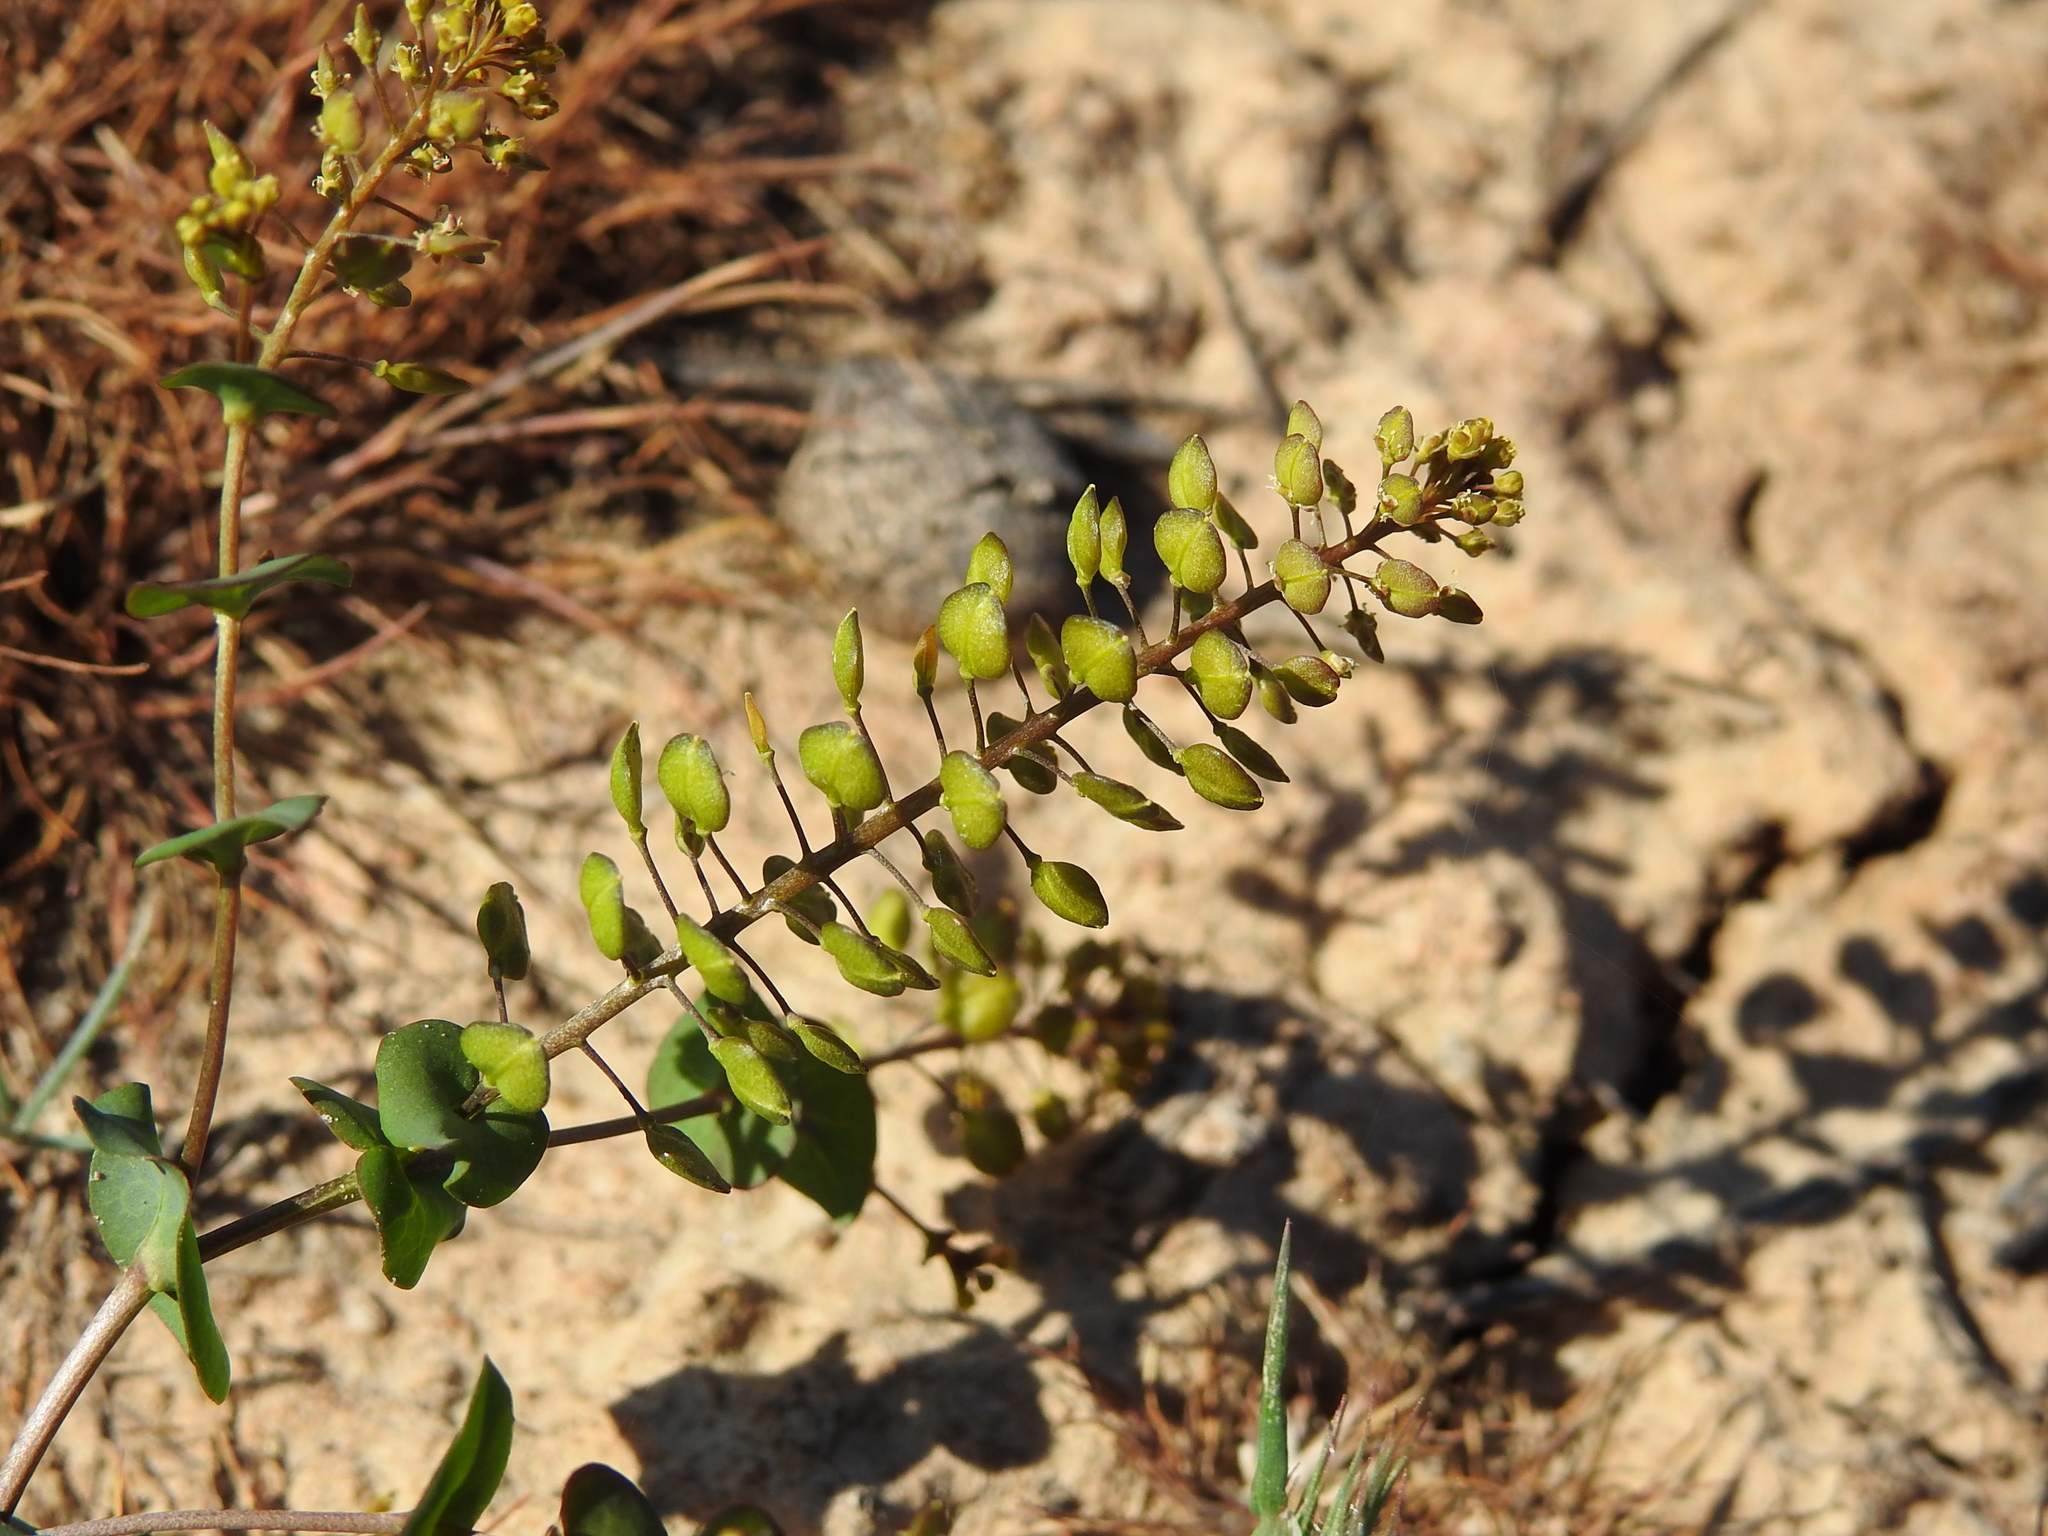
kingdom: Plantae
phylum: Tracheophyta
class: Magnoliopsida
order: Brassicales
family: Brassicaceae
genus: Lepidium
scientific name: Lepidium perfoliatum
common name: Perfoliate pepperwort
